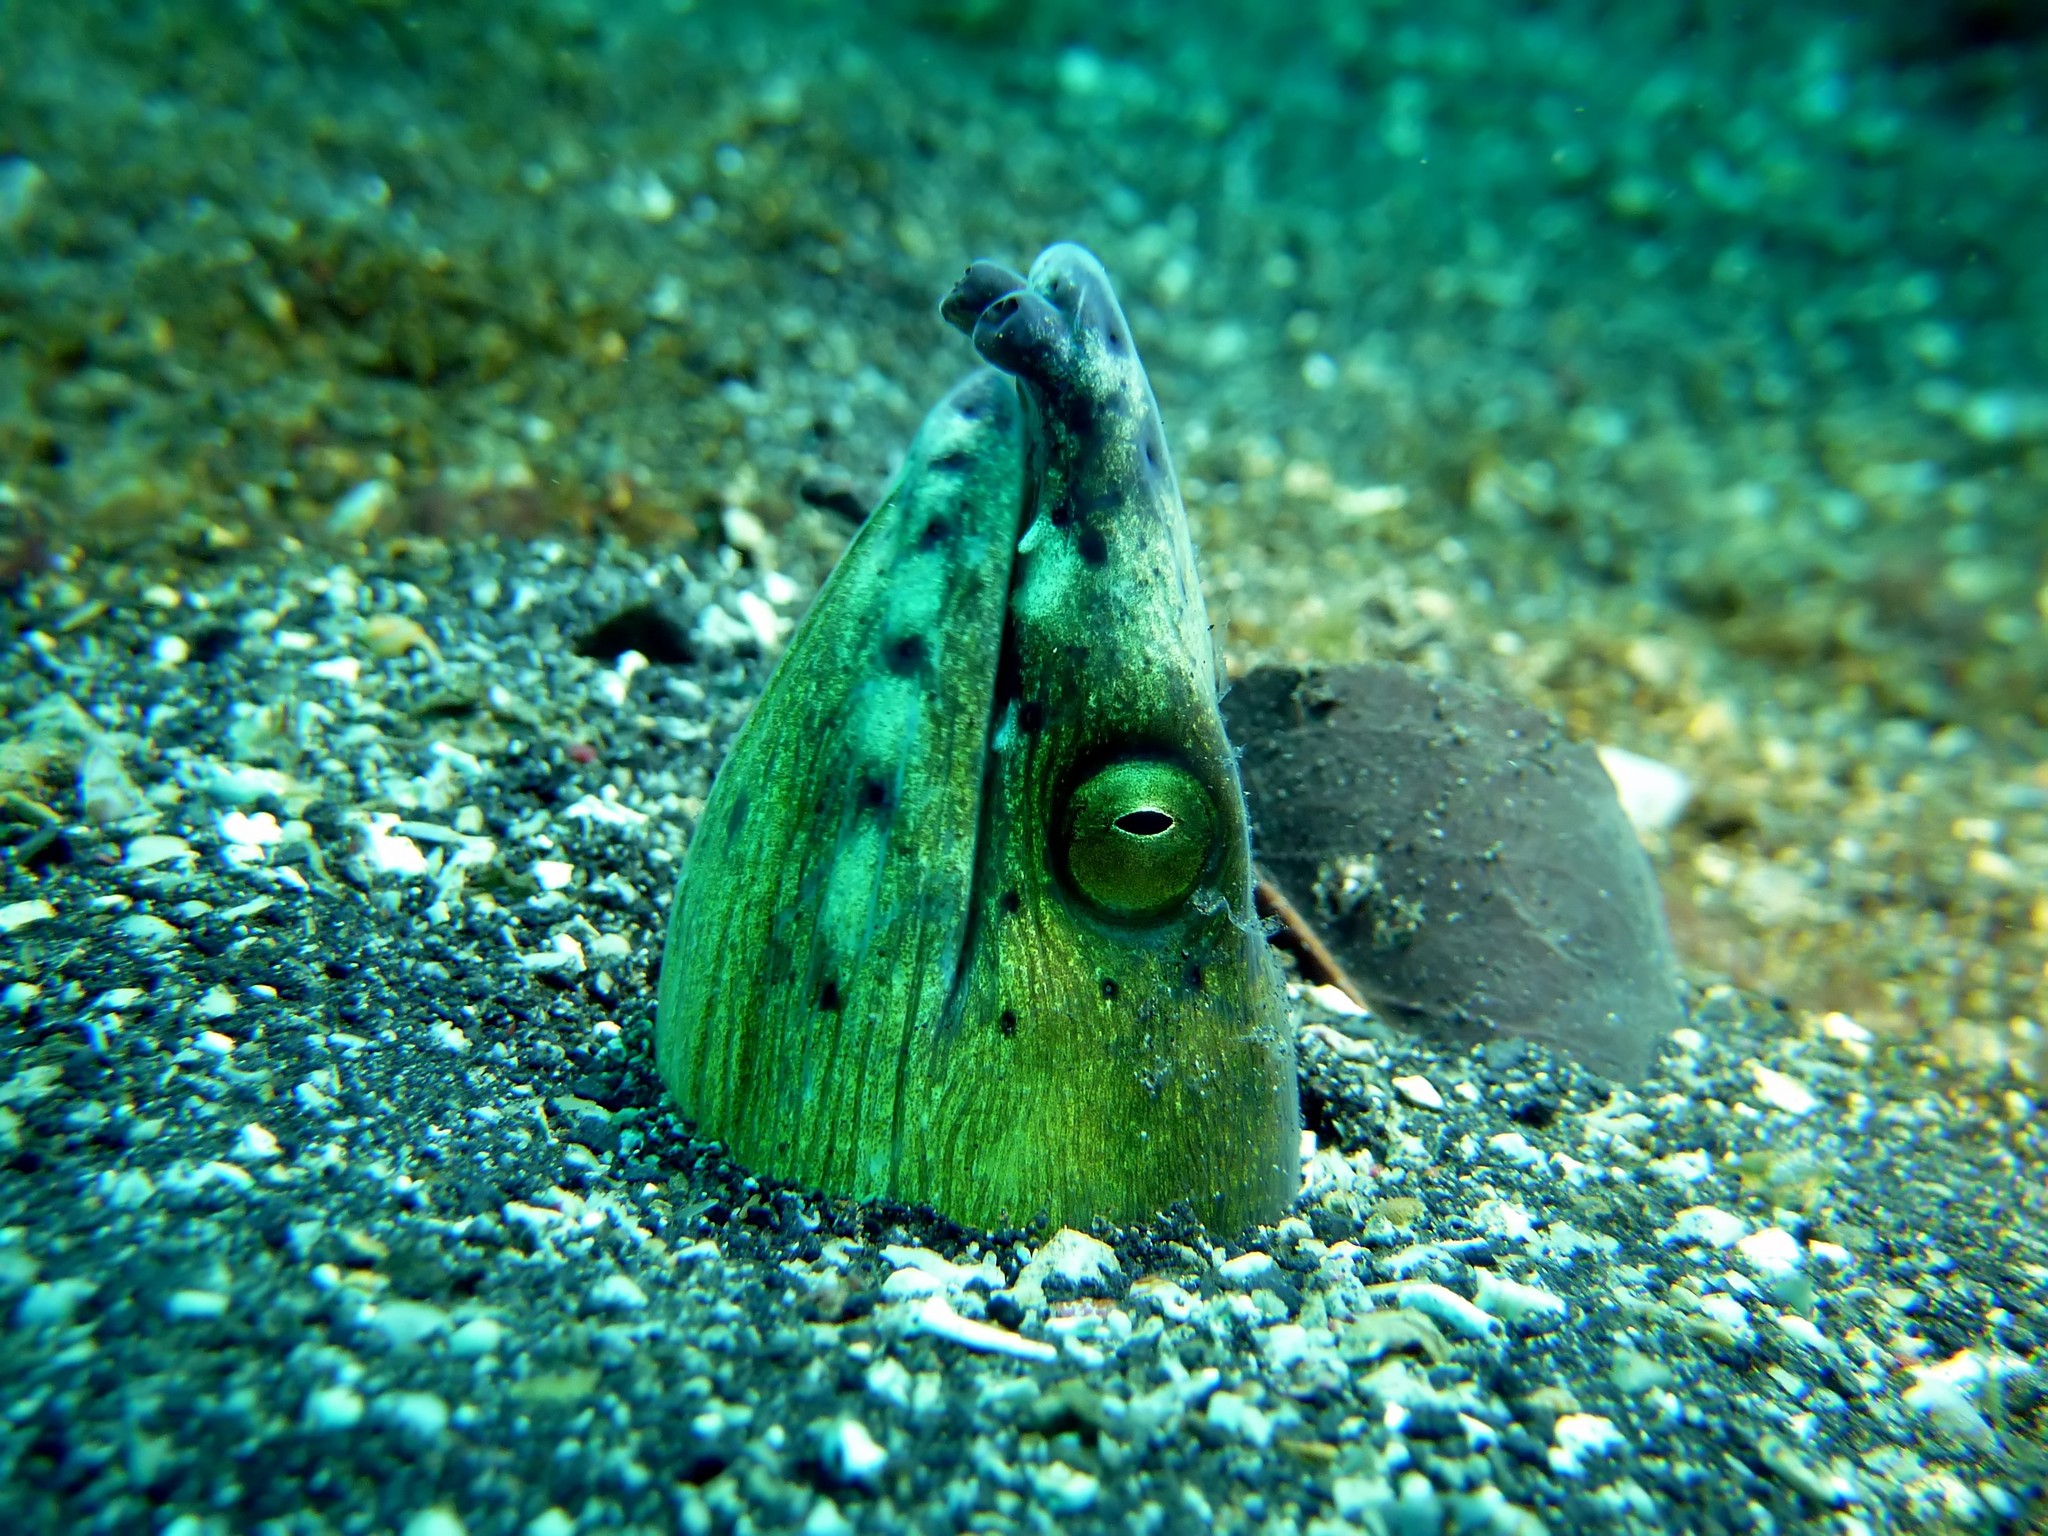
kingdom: Animalia
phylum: Chordata
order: Anguilliformes
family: Ophichthidae
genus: Ophichthus
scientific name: Ophichthus altipennis
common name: Highfin snake eel
